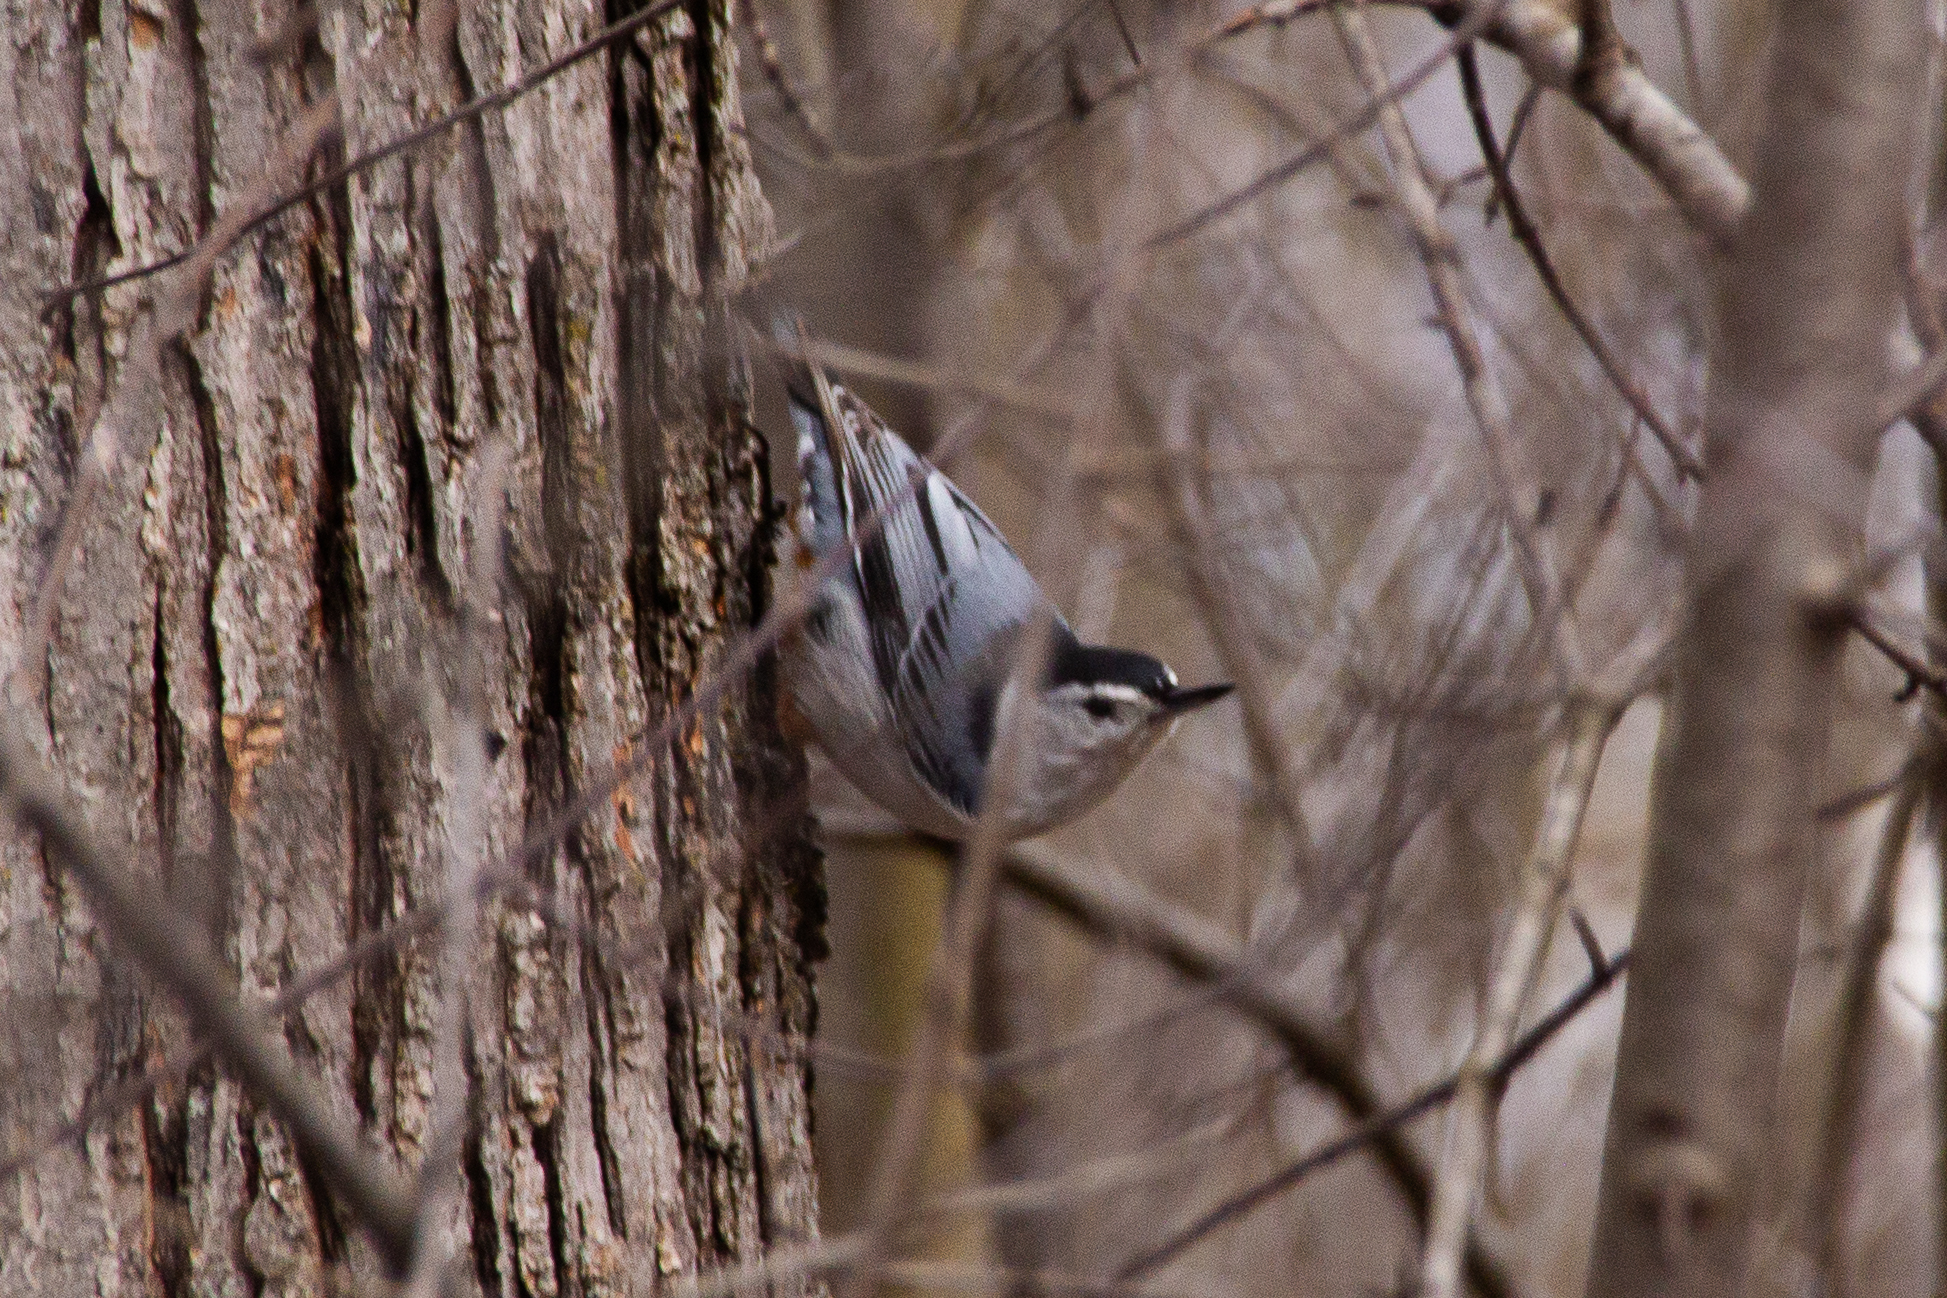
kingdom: Animalia
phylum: Chordata
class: Aves
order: Passeriformes
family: Sittidae
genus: Sitta
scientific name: Sitta carolinensis
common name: White-breasted nuthatch
